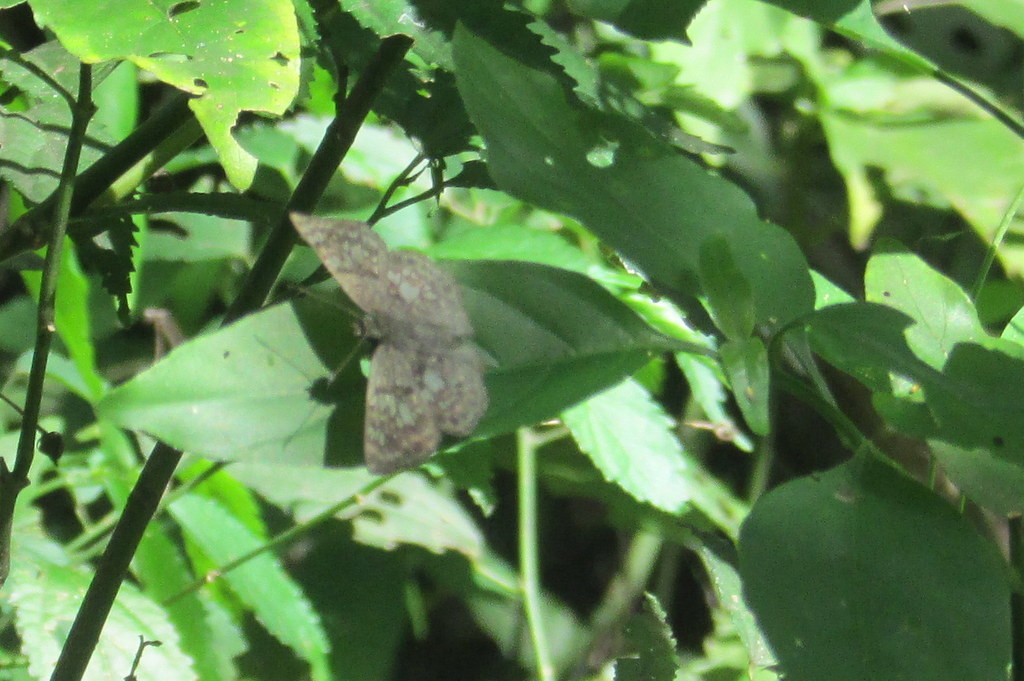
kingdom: Animalia
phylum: Arthropoda
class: Insecta
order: Lepidoptera
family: Hesperiidae
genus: Xenophanes
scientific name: Xenophanes tryxus
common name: Glassy-winged skipper
